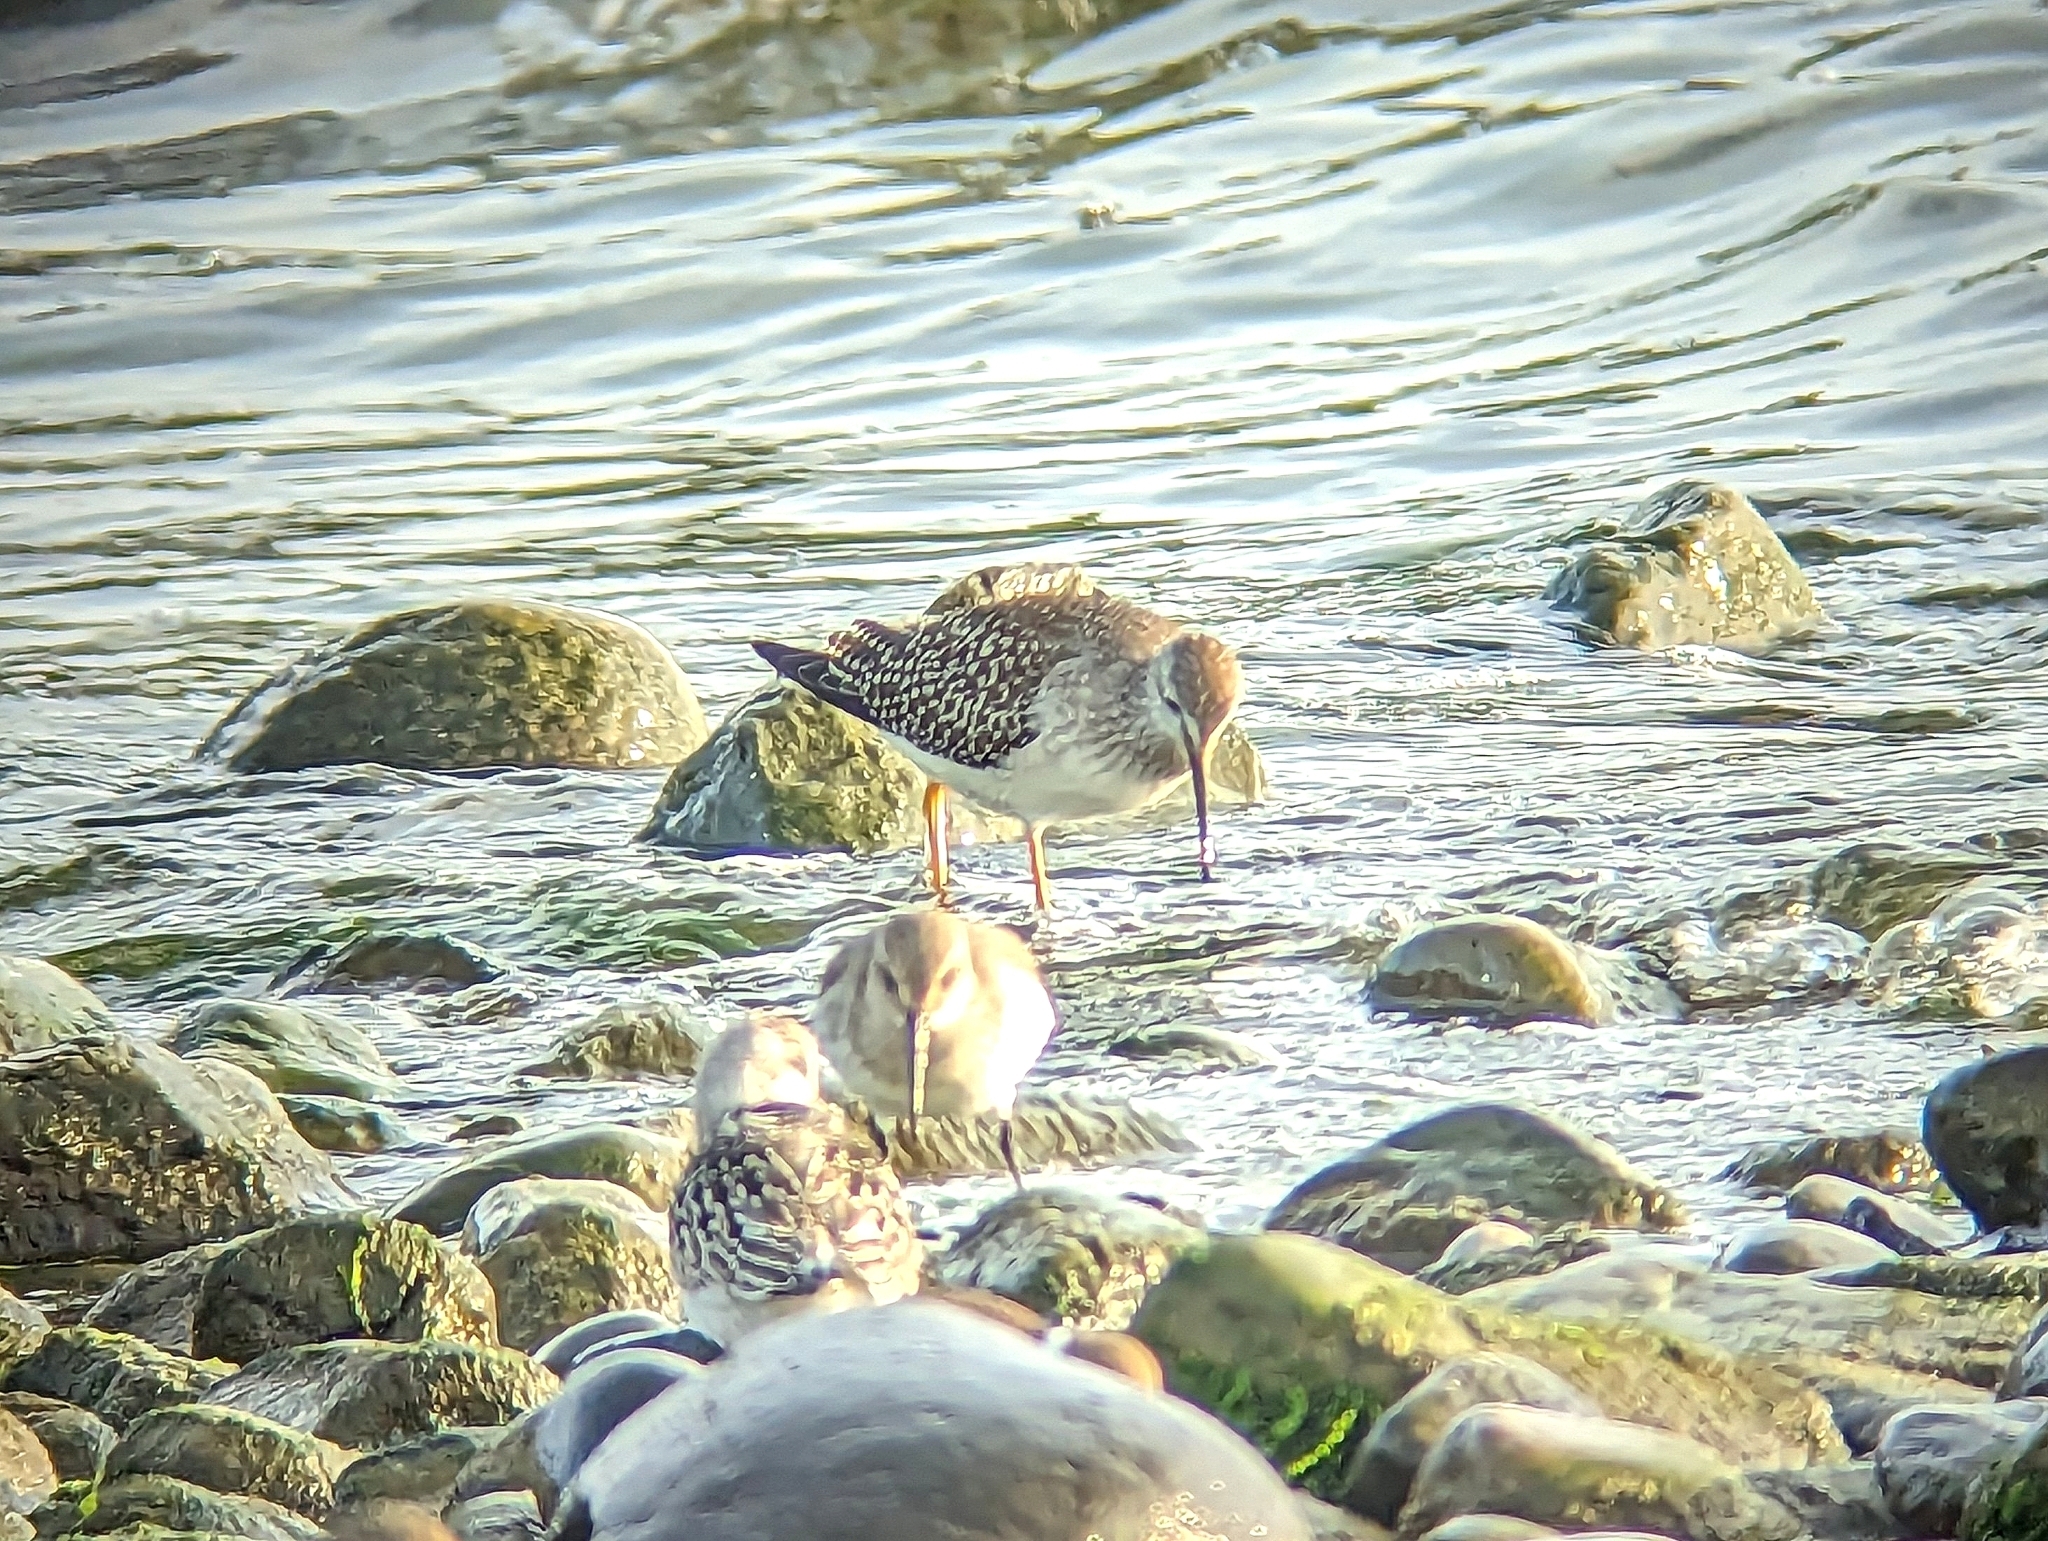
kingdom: Animalia
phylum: Chordata
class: Aves
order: Charadriiformes
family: Scolopacidae
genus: Tringa
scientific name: Tringa flavipes
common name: Lesser yellowlegs
